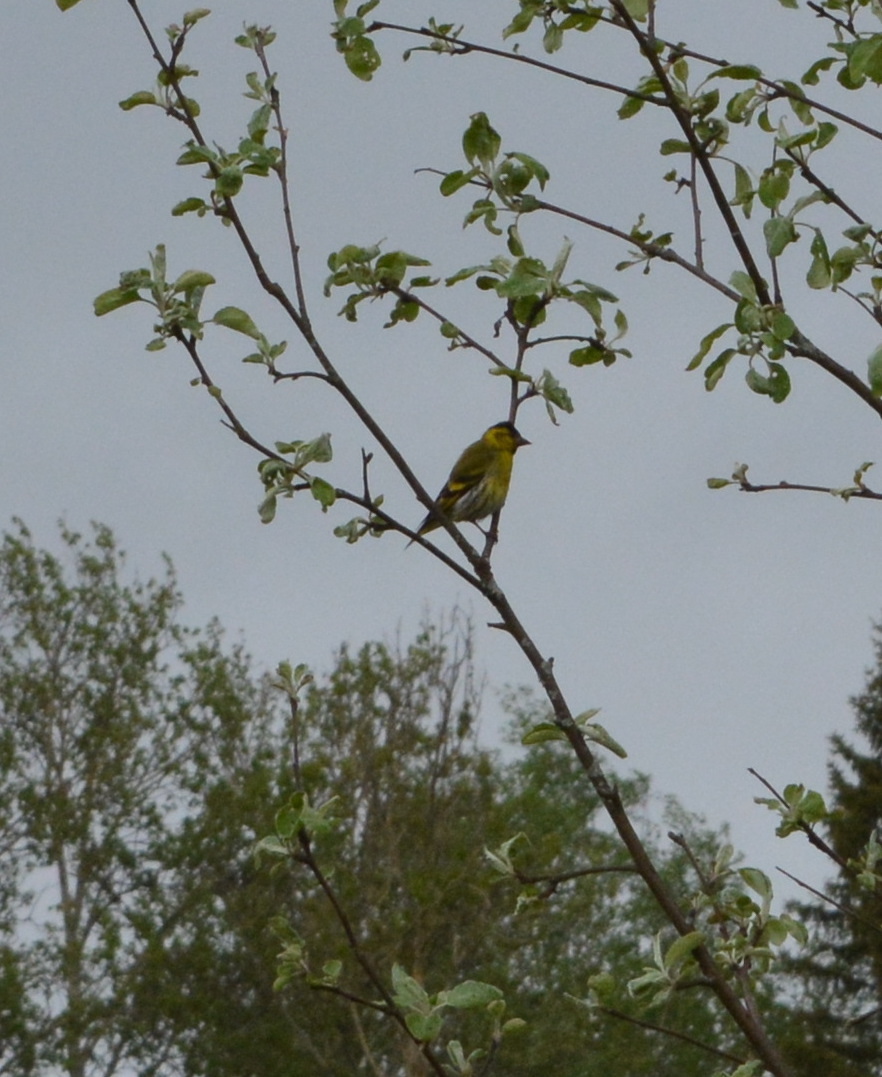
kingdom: Animalia
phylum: Chordata
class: Aves
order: Passeriformes
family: Fringillidae
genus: Spinus
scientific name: Spinus spinus
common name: Eurasian siskin
